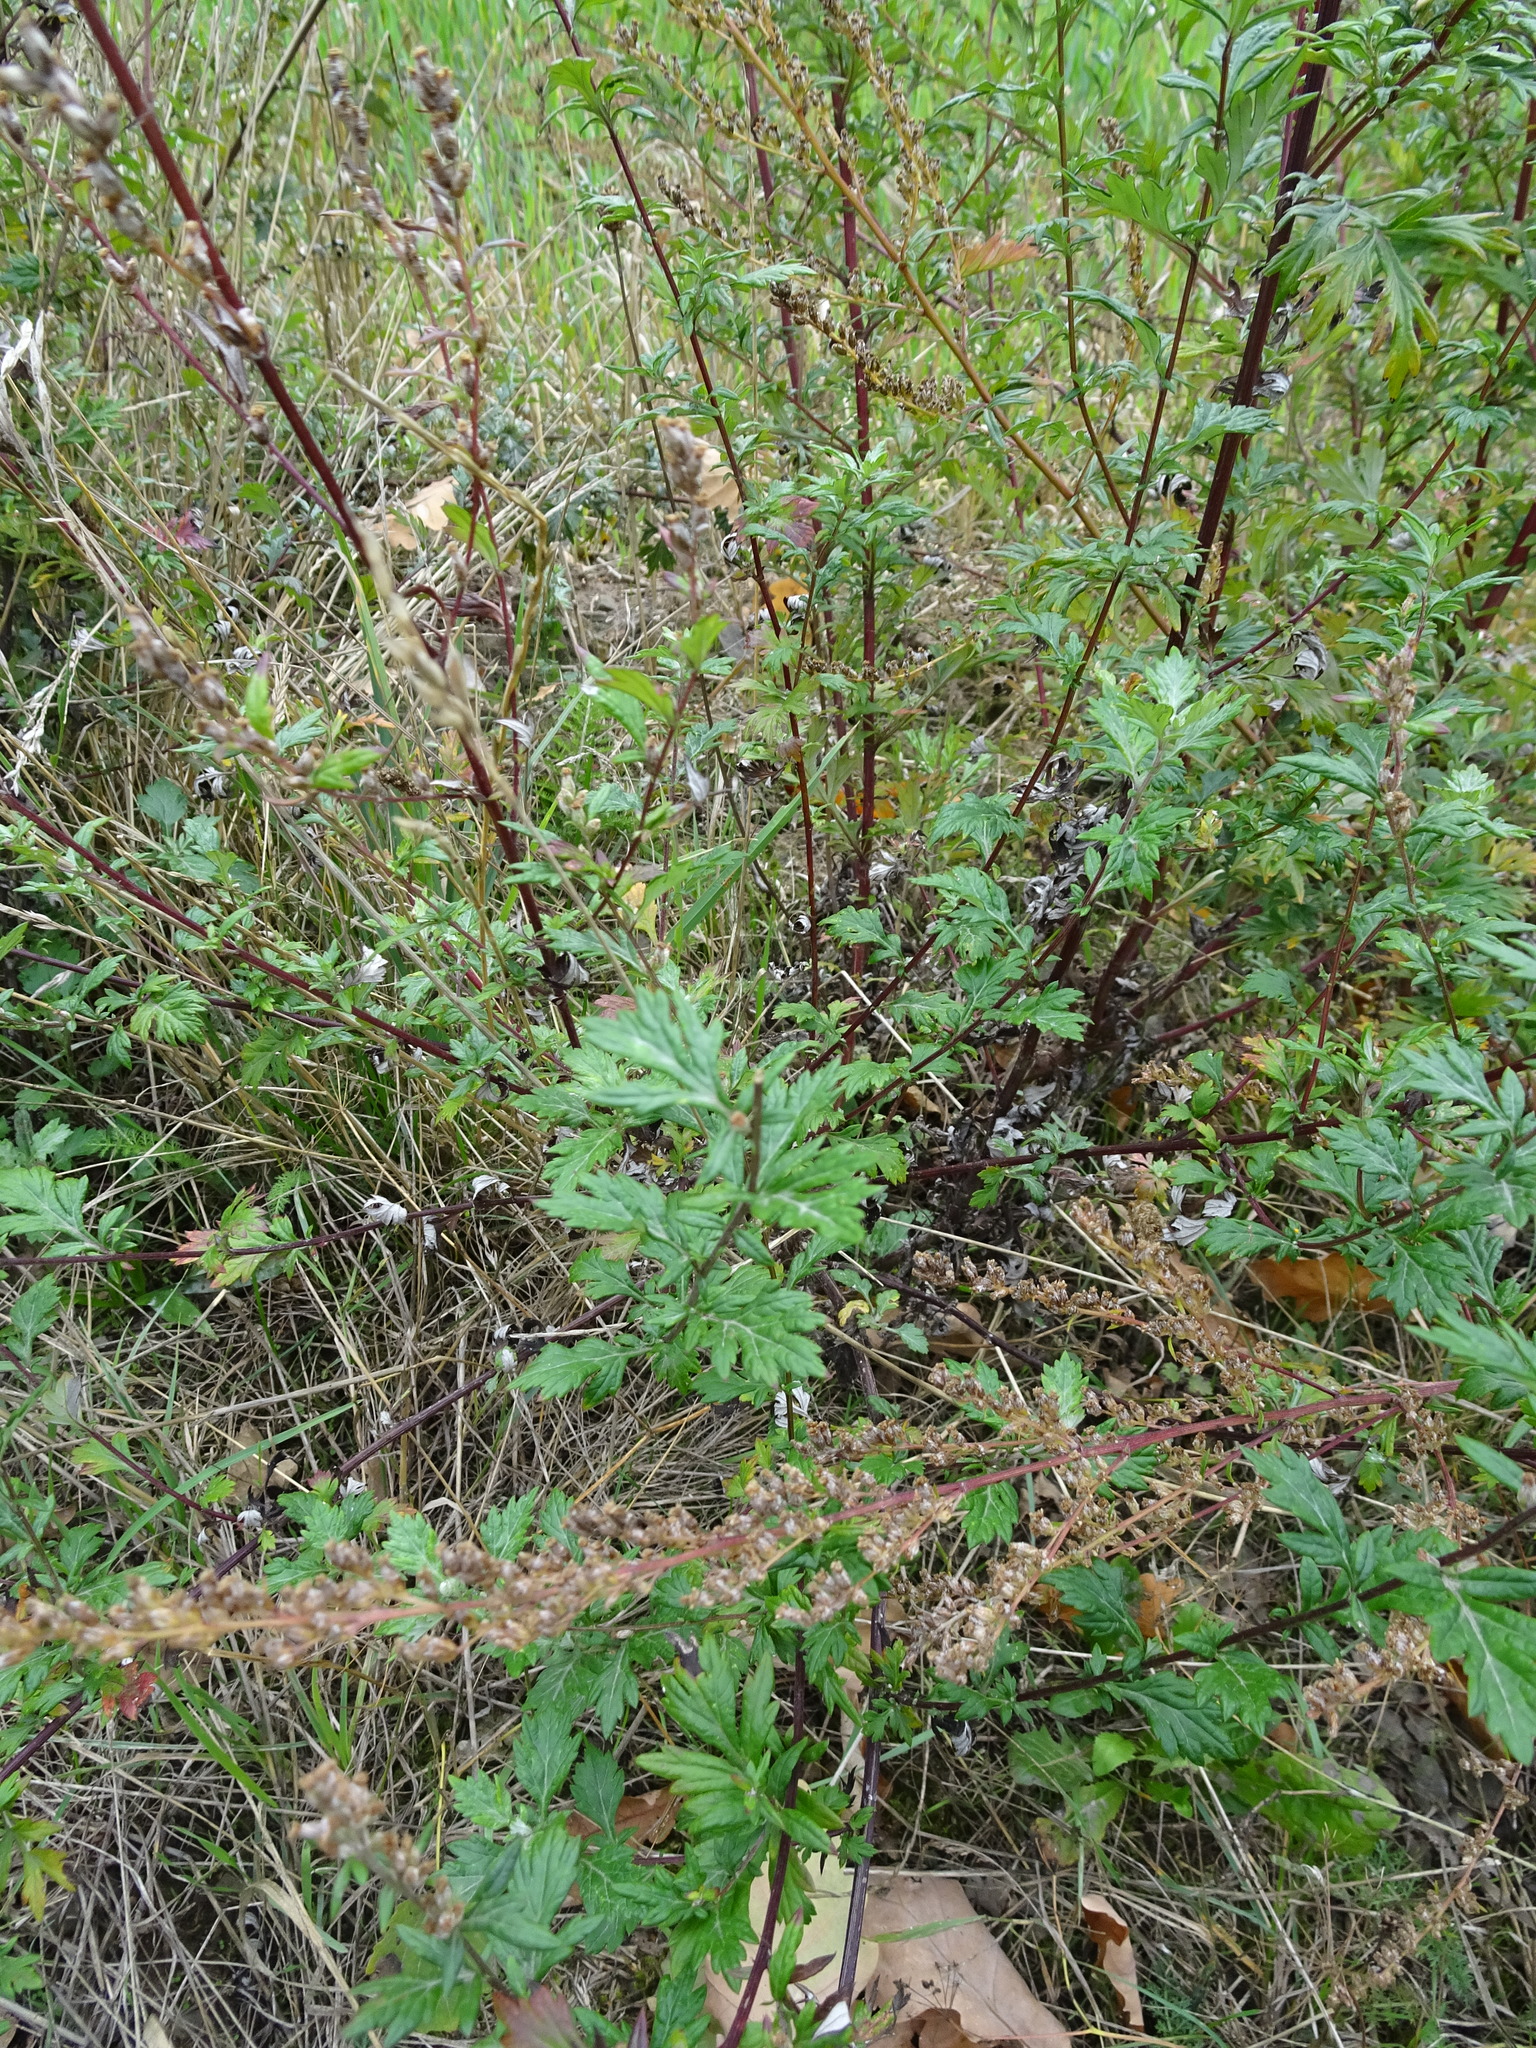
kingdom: Plantae
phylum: Tracheophyta
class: Magnoliopsida
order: Asterales
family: Asteraceae
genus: Artemisia
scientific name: Artemisia vulgaris
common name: Mugwort
